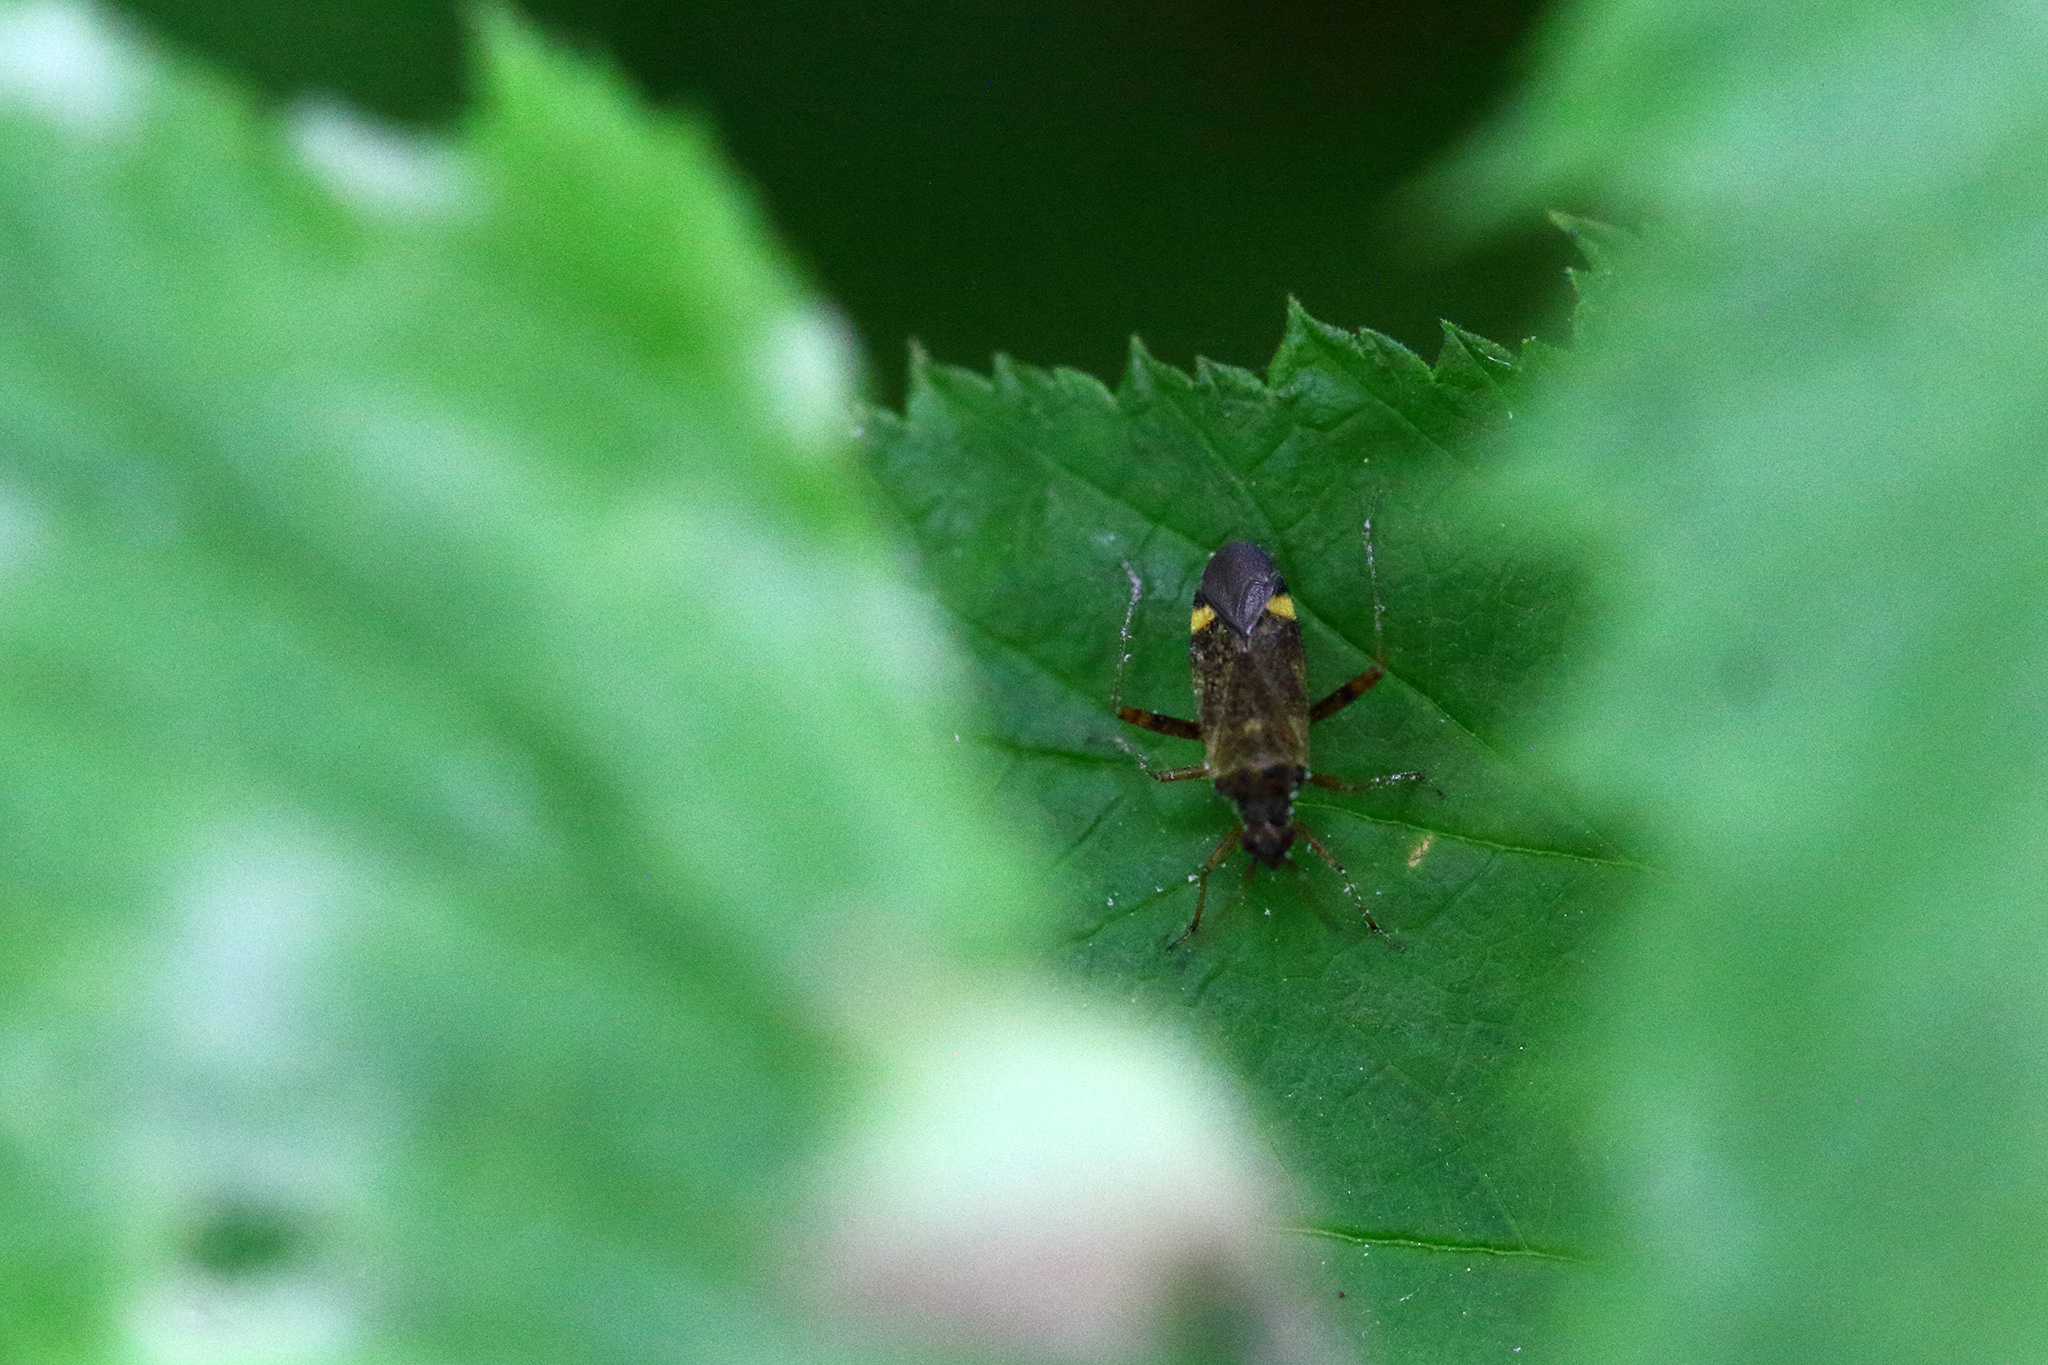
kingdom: Animalia
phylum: Arthropoda
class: Insecta
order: Hemiptera
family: Miridae
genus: Closterotomus
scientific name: Closterotomus fulvomaculatus
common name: Spotted plant bug
